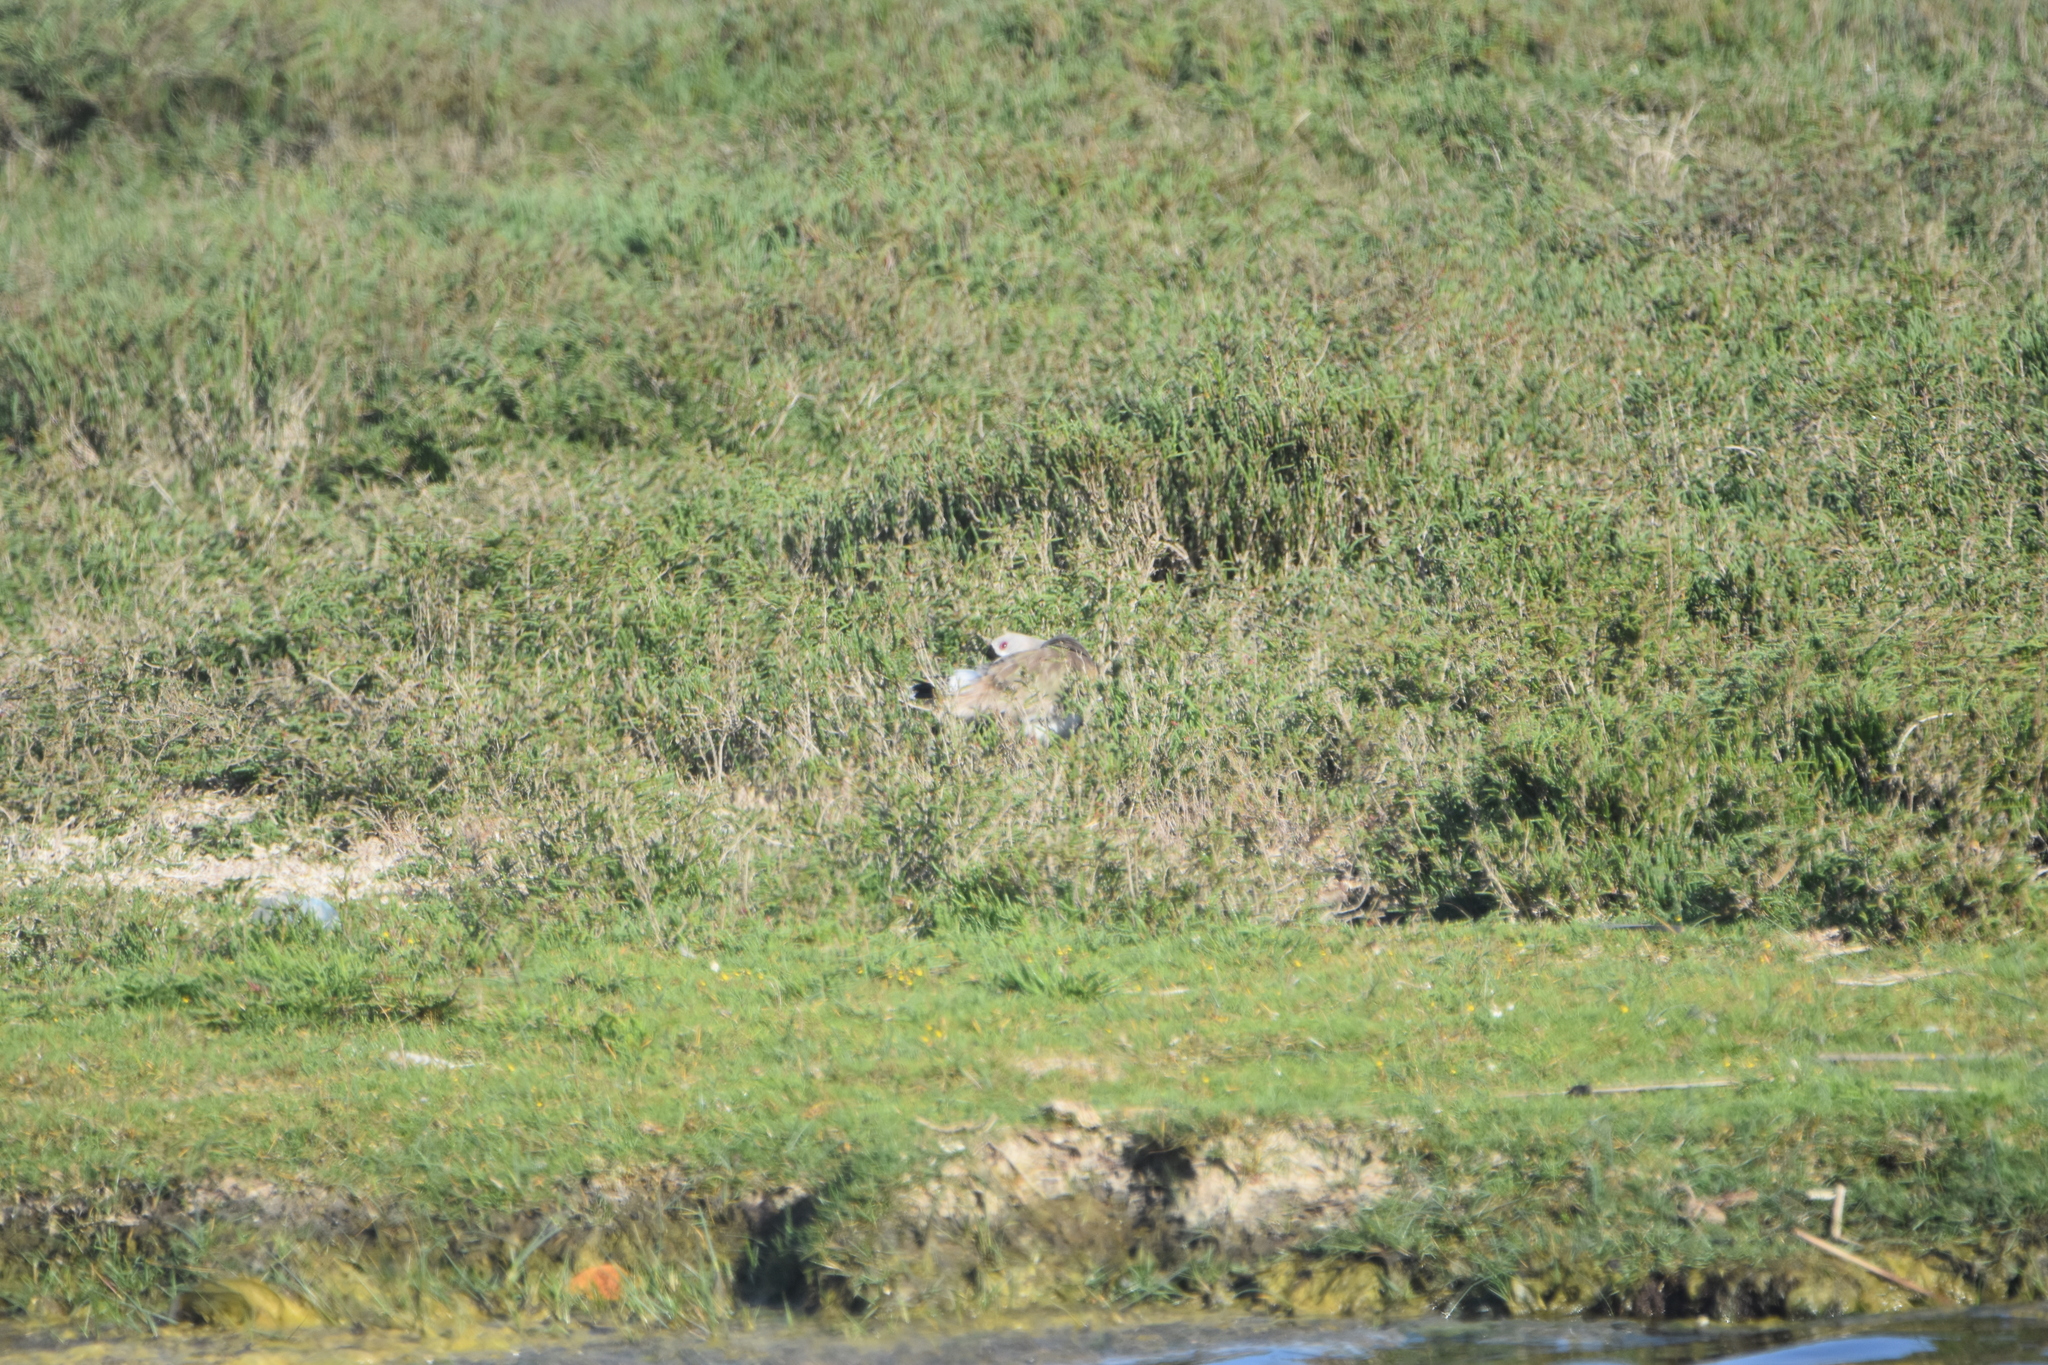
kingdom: Animalia
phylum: Chordata
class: Aves
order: Charadriiformes
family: Charadriidae
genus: Vanellus
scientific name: Vanellus chilensis
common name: Southern lapwing
